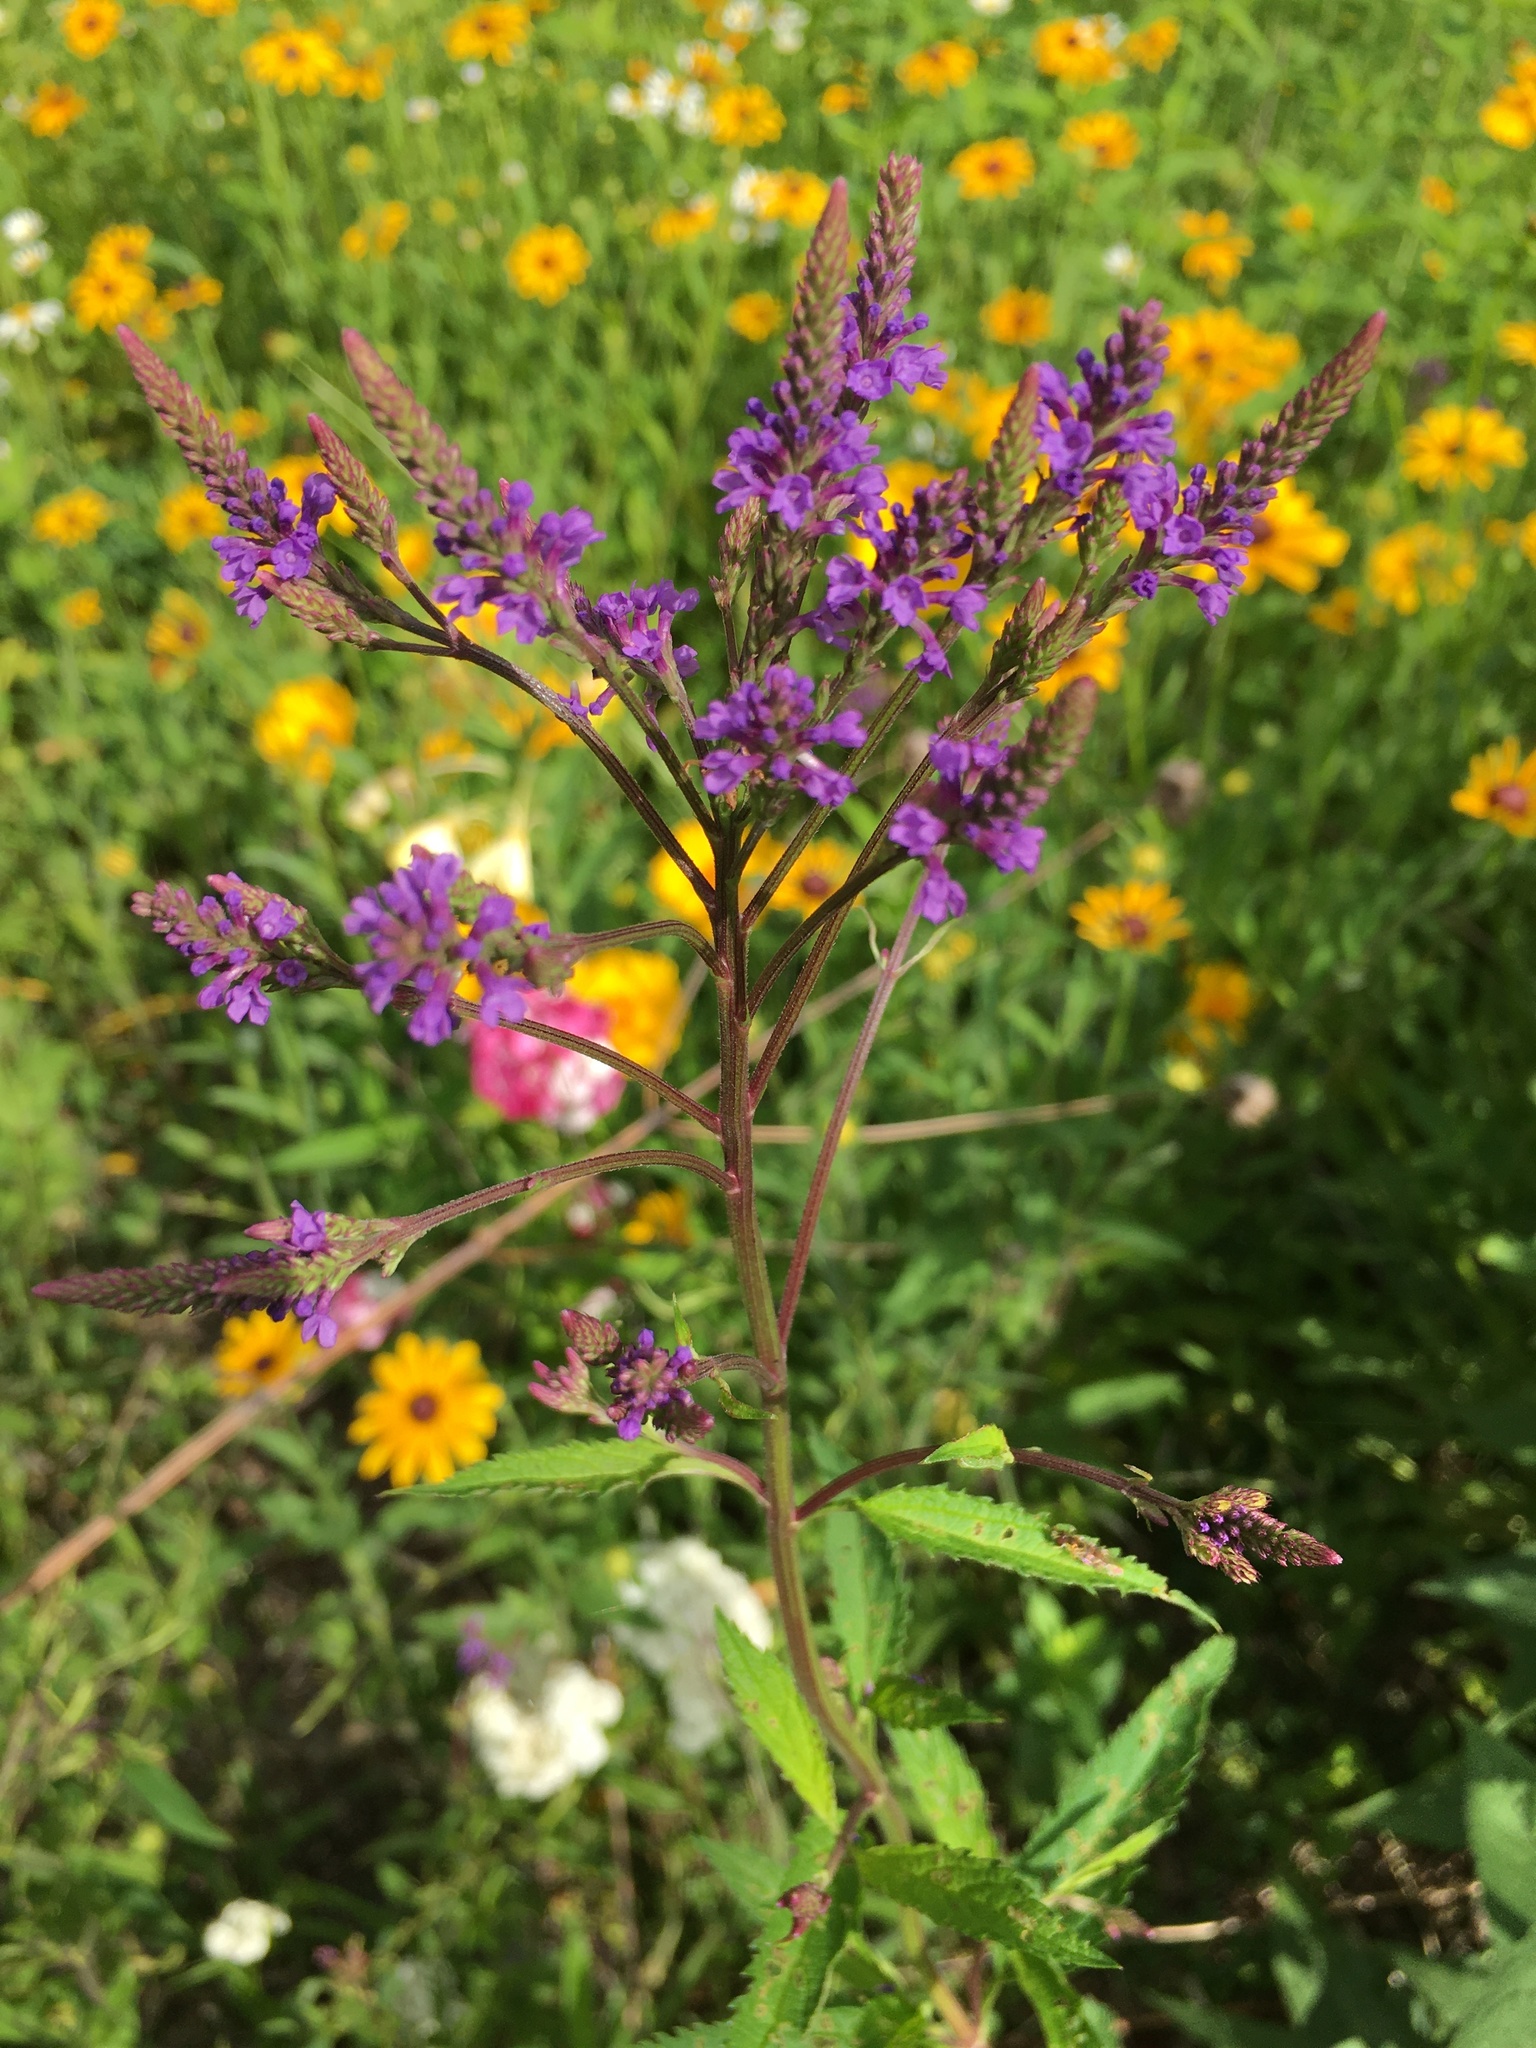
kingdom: Plantae
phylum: Tracheophyta
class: Magnoliopsida
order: Lamiales
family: Verbenaceae
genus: Verbena
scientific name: Verbena hastata
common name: American blue vervain
